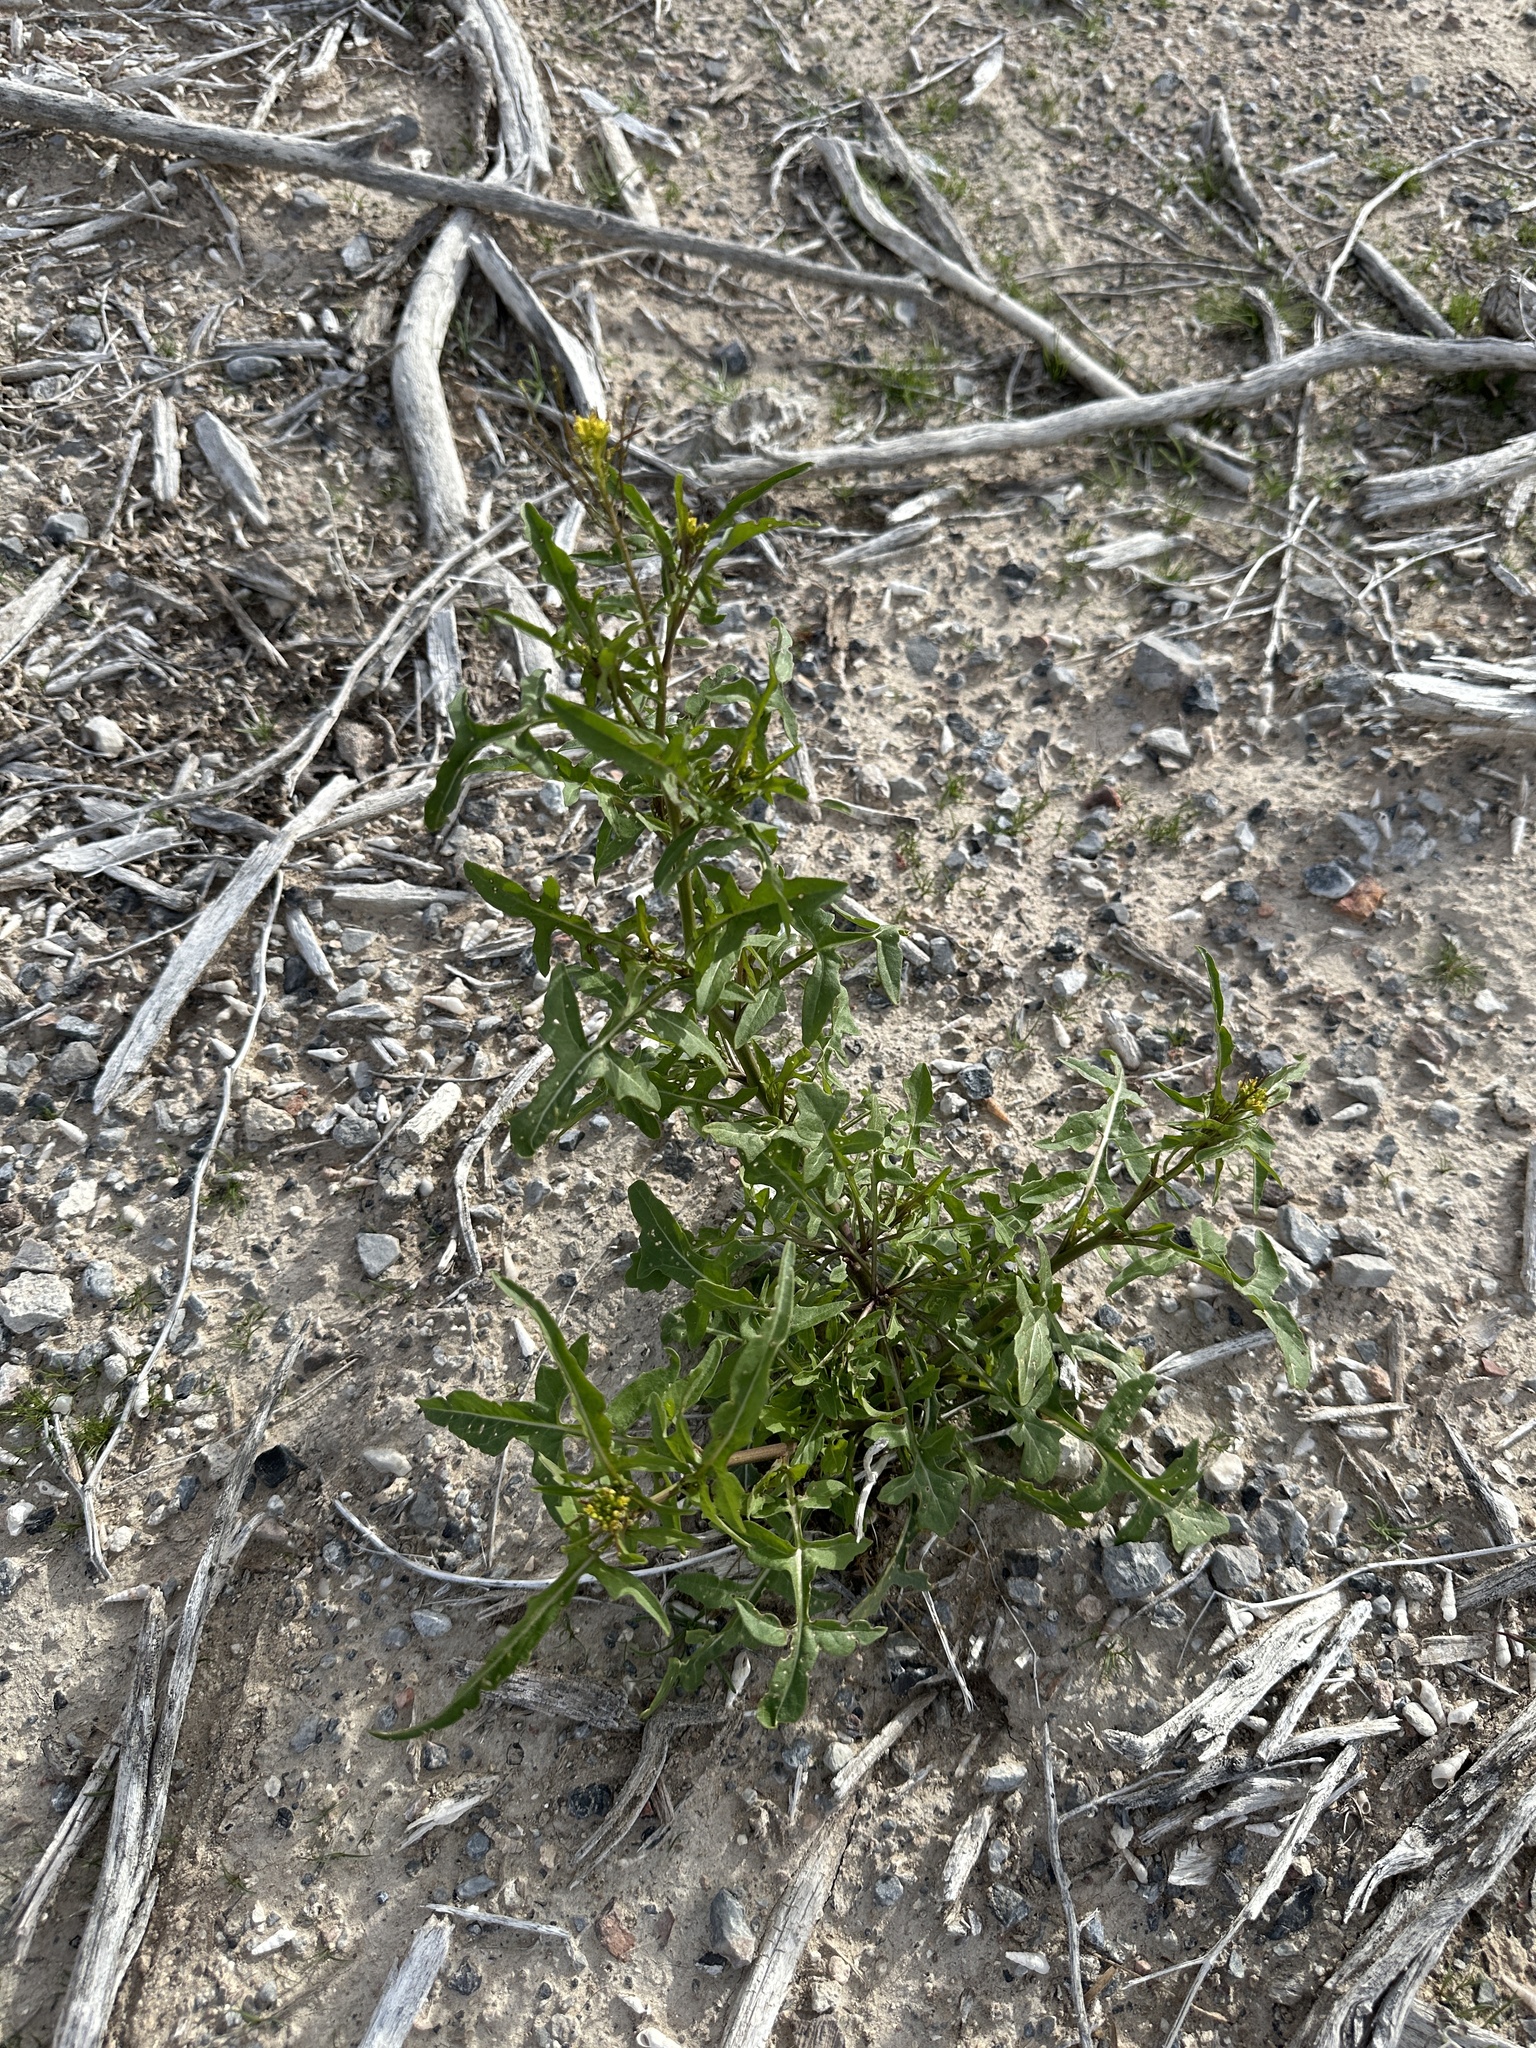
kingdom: Plantae
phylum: Tracheophyta
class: Magnoliopsida
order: Brassicales
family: Brassicaceae
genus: Sisymbrium
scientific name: Sisymbrium irio
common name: London rocket
